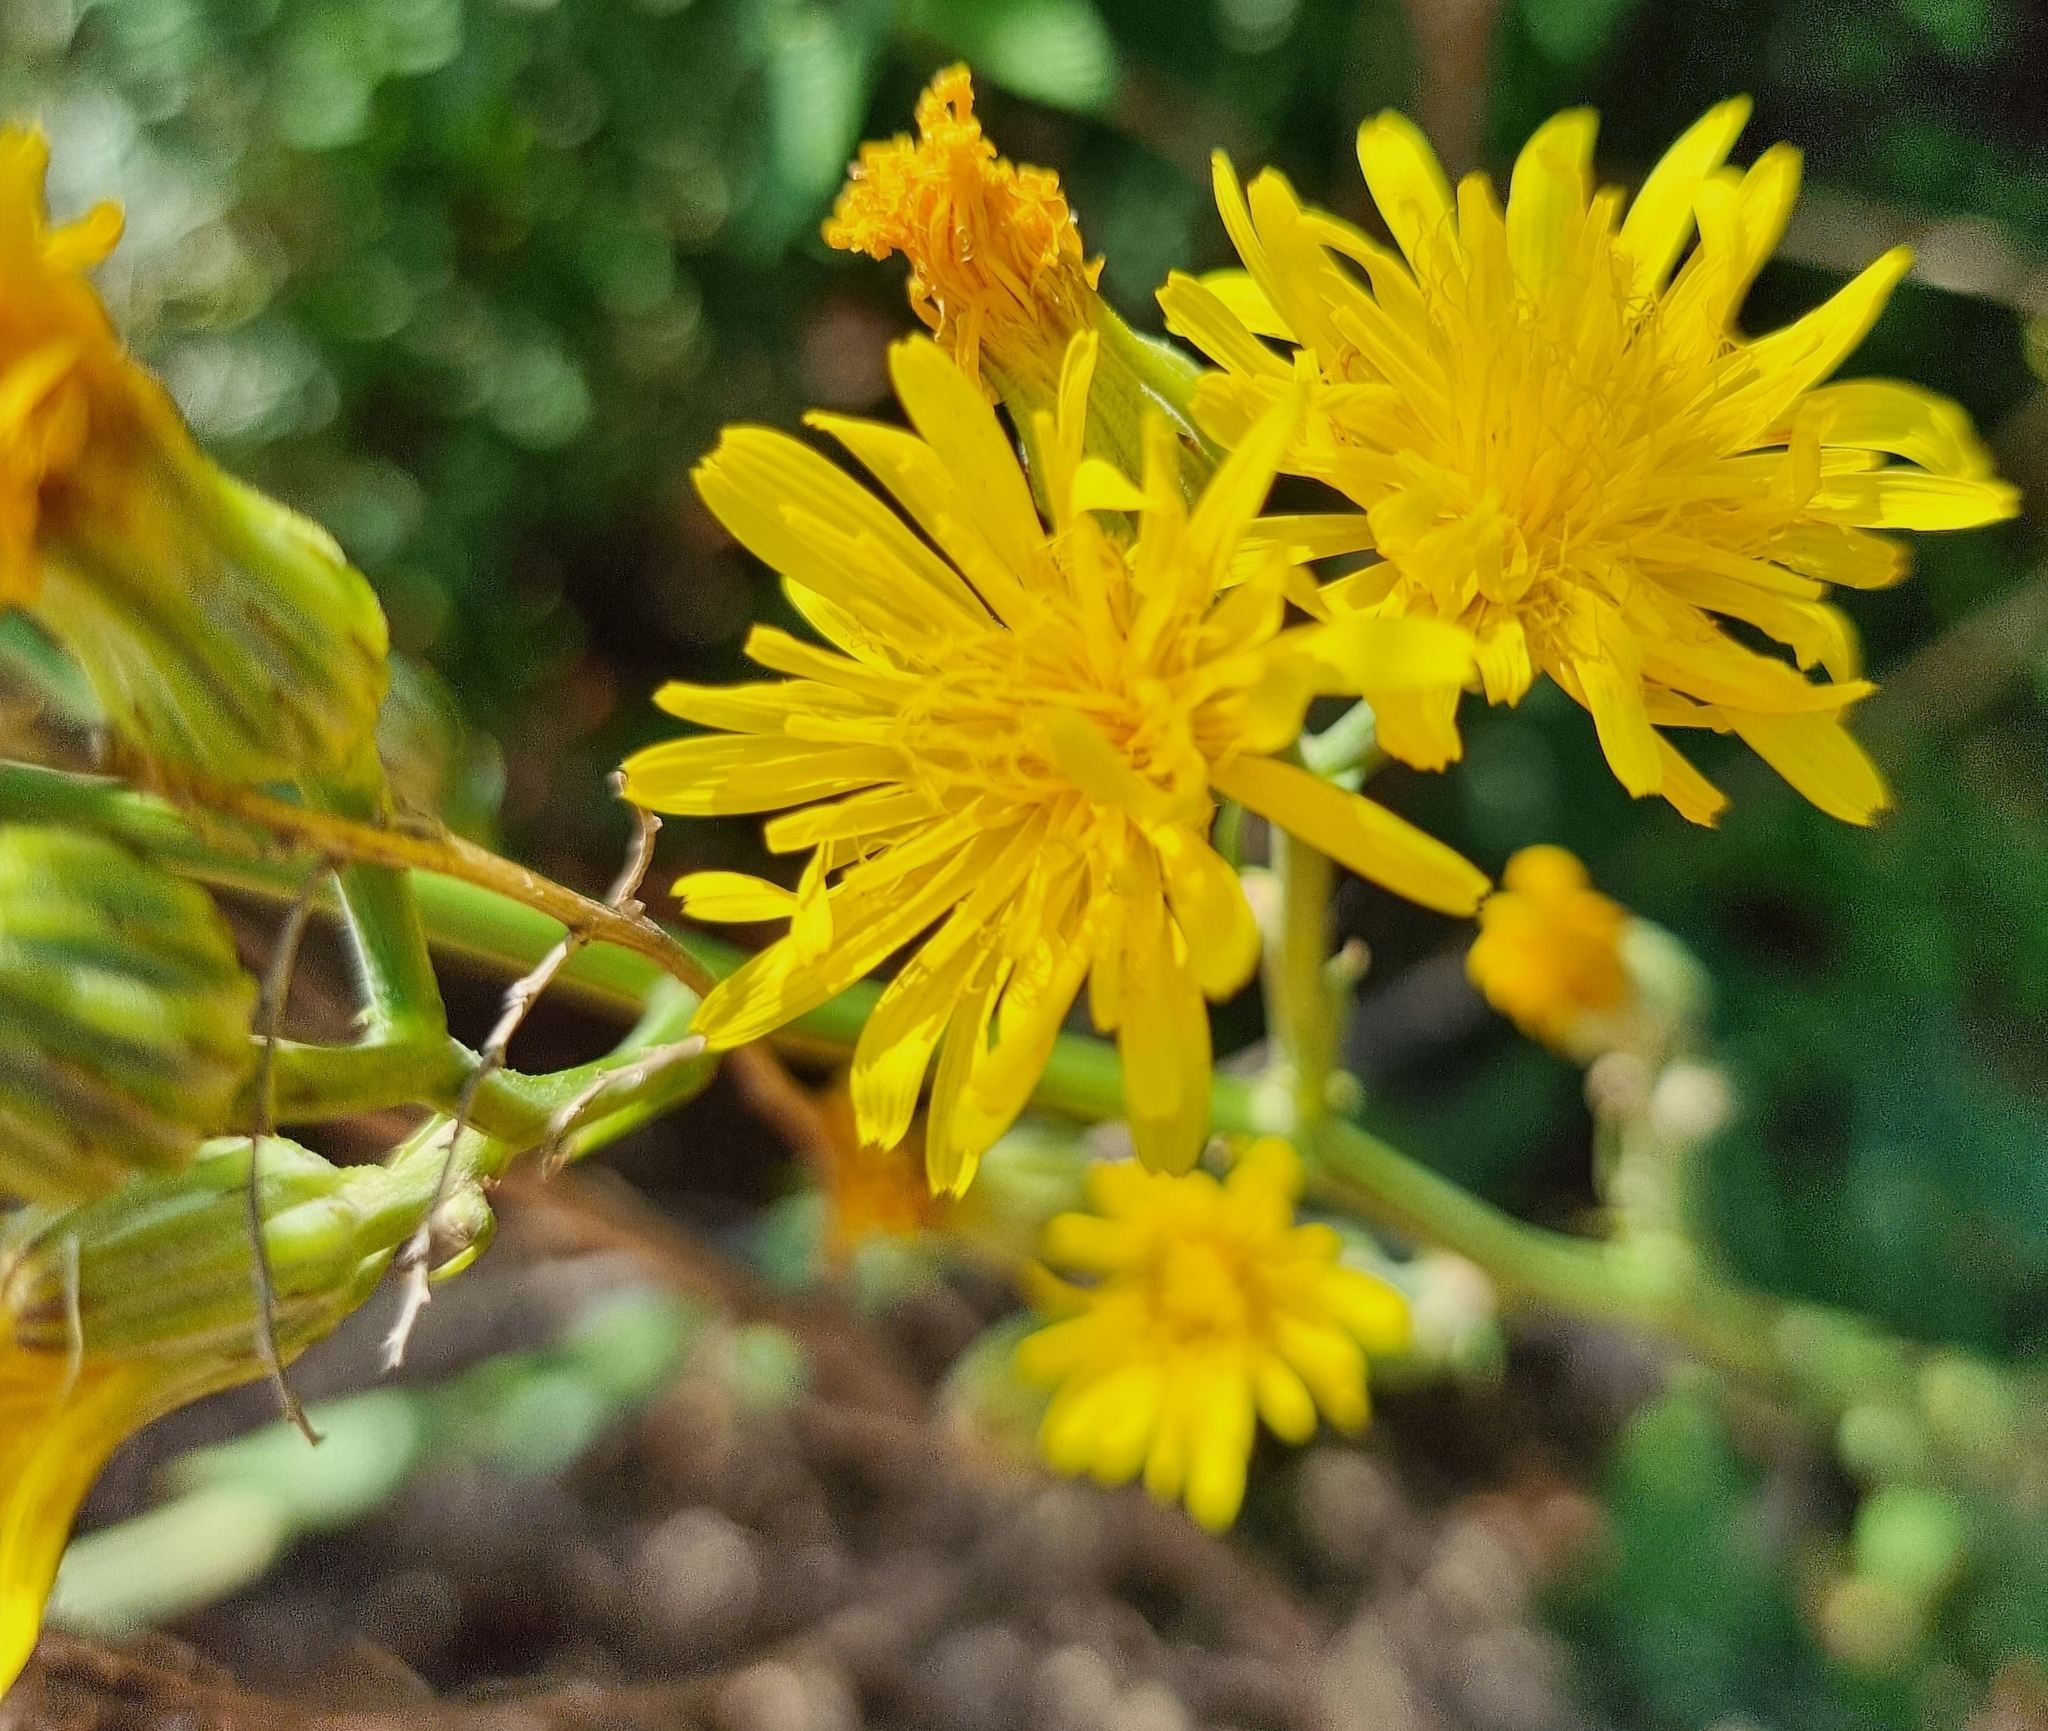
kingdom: Plantae
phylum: Tracheophyta
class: Magnoliopsida
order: Asterales
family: Asteraceae
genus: Crepis
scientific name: Crepis pannonica
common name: Pasture hawksbeard
